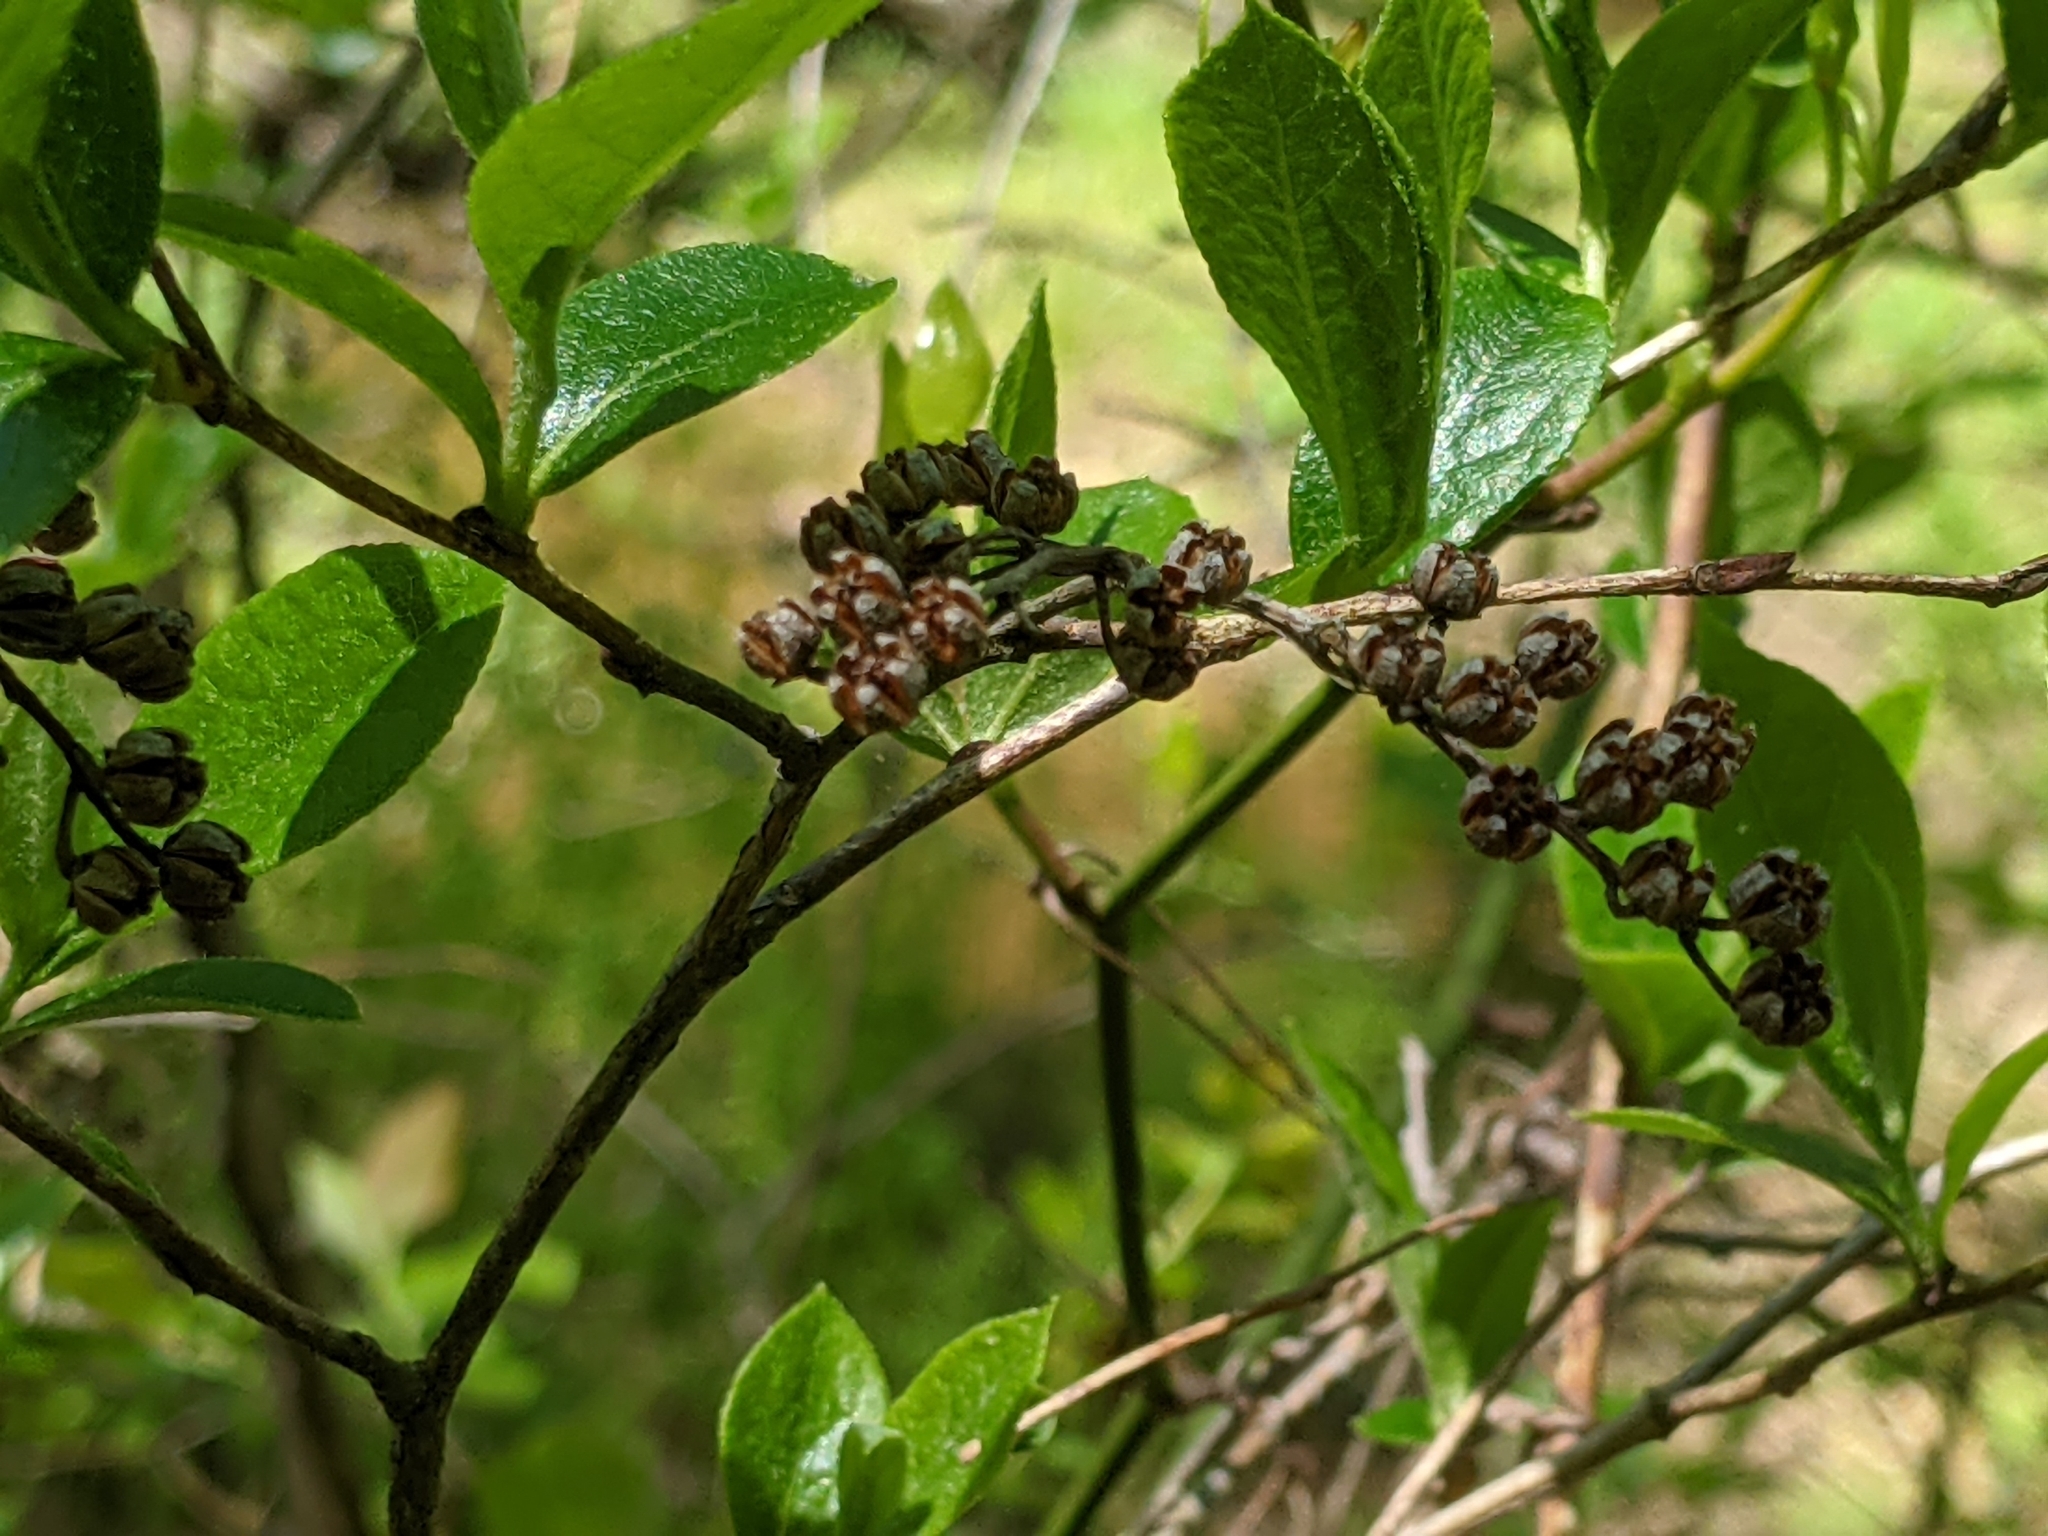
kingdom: Plantae
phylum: Tracheophyta
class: Magnoliopsida
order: Ericales
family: Ericaceae
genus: Lyonia
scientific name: Lyonia ligustrina
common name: Maleberry
